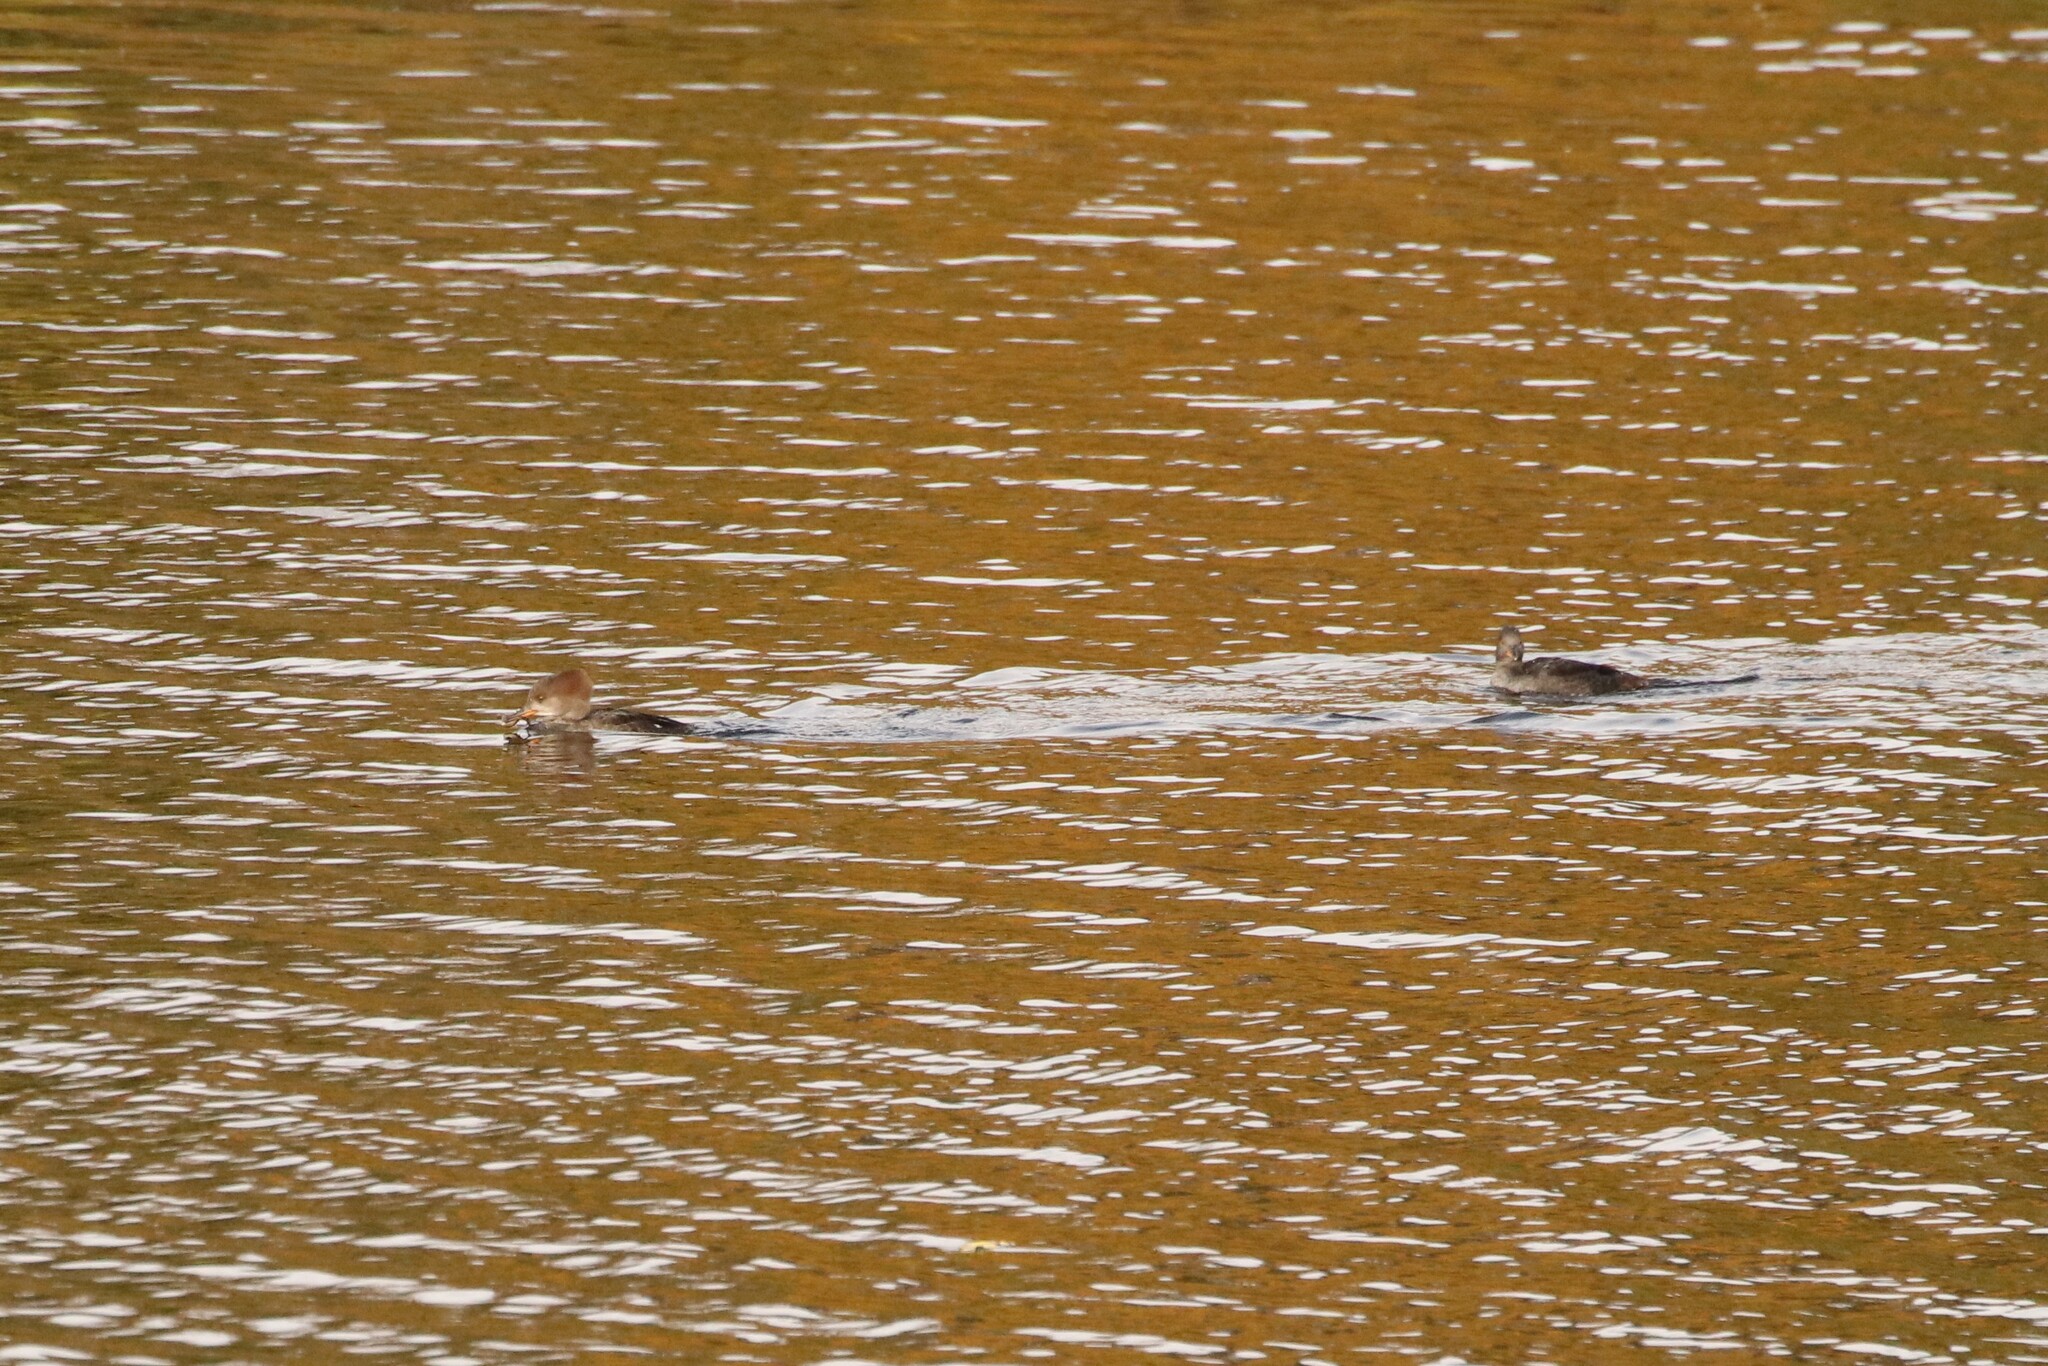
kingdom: Animalia
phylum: Chordata
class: Aves
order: Anseriformes
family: Anatidae
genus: Lophodytes
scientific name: Lophodytes cucullatus
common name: Hooded merganser
